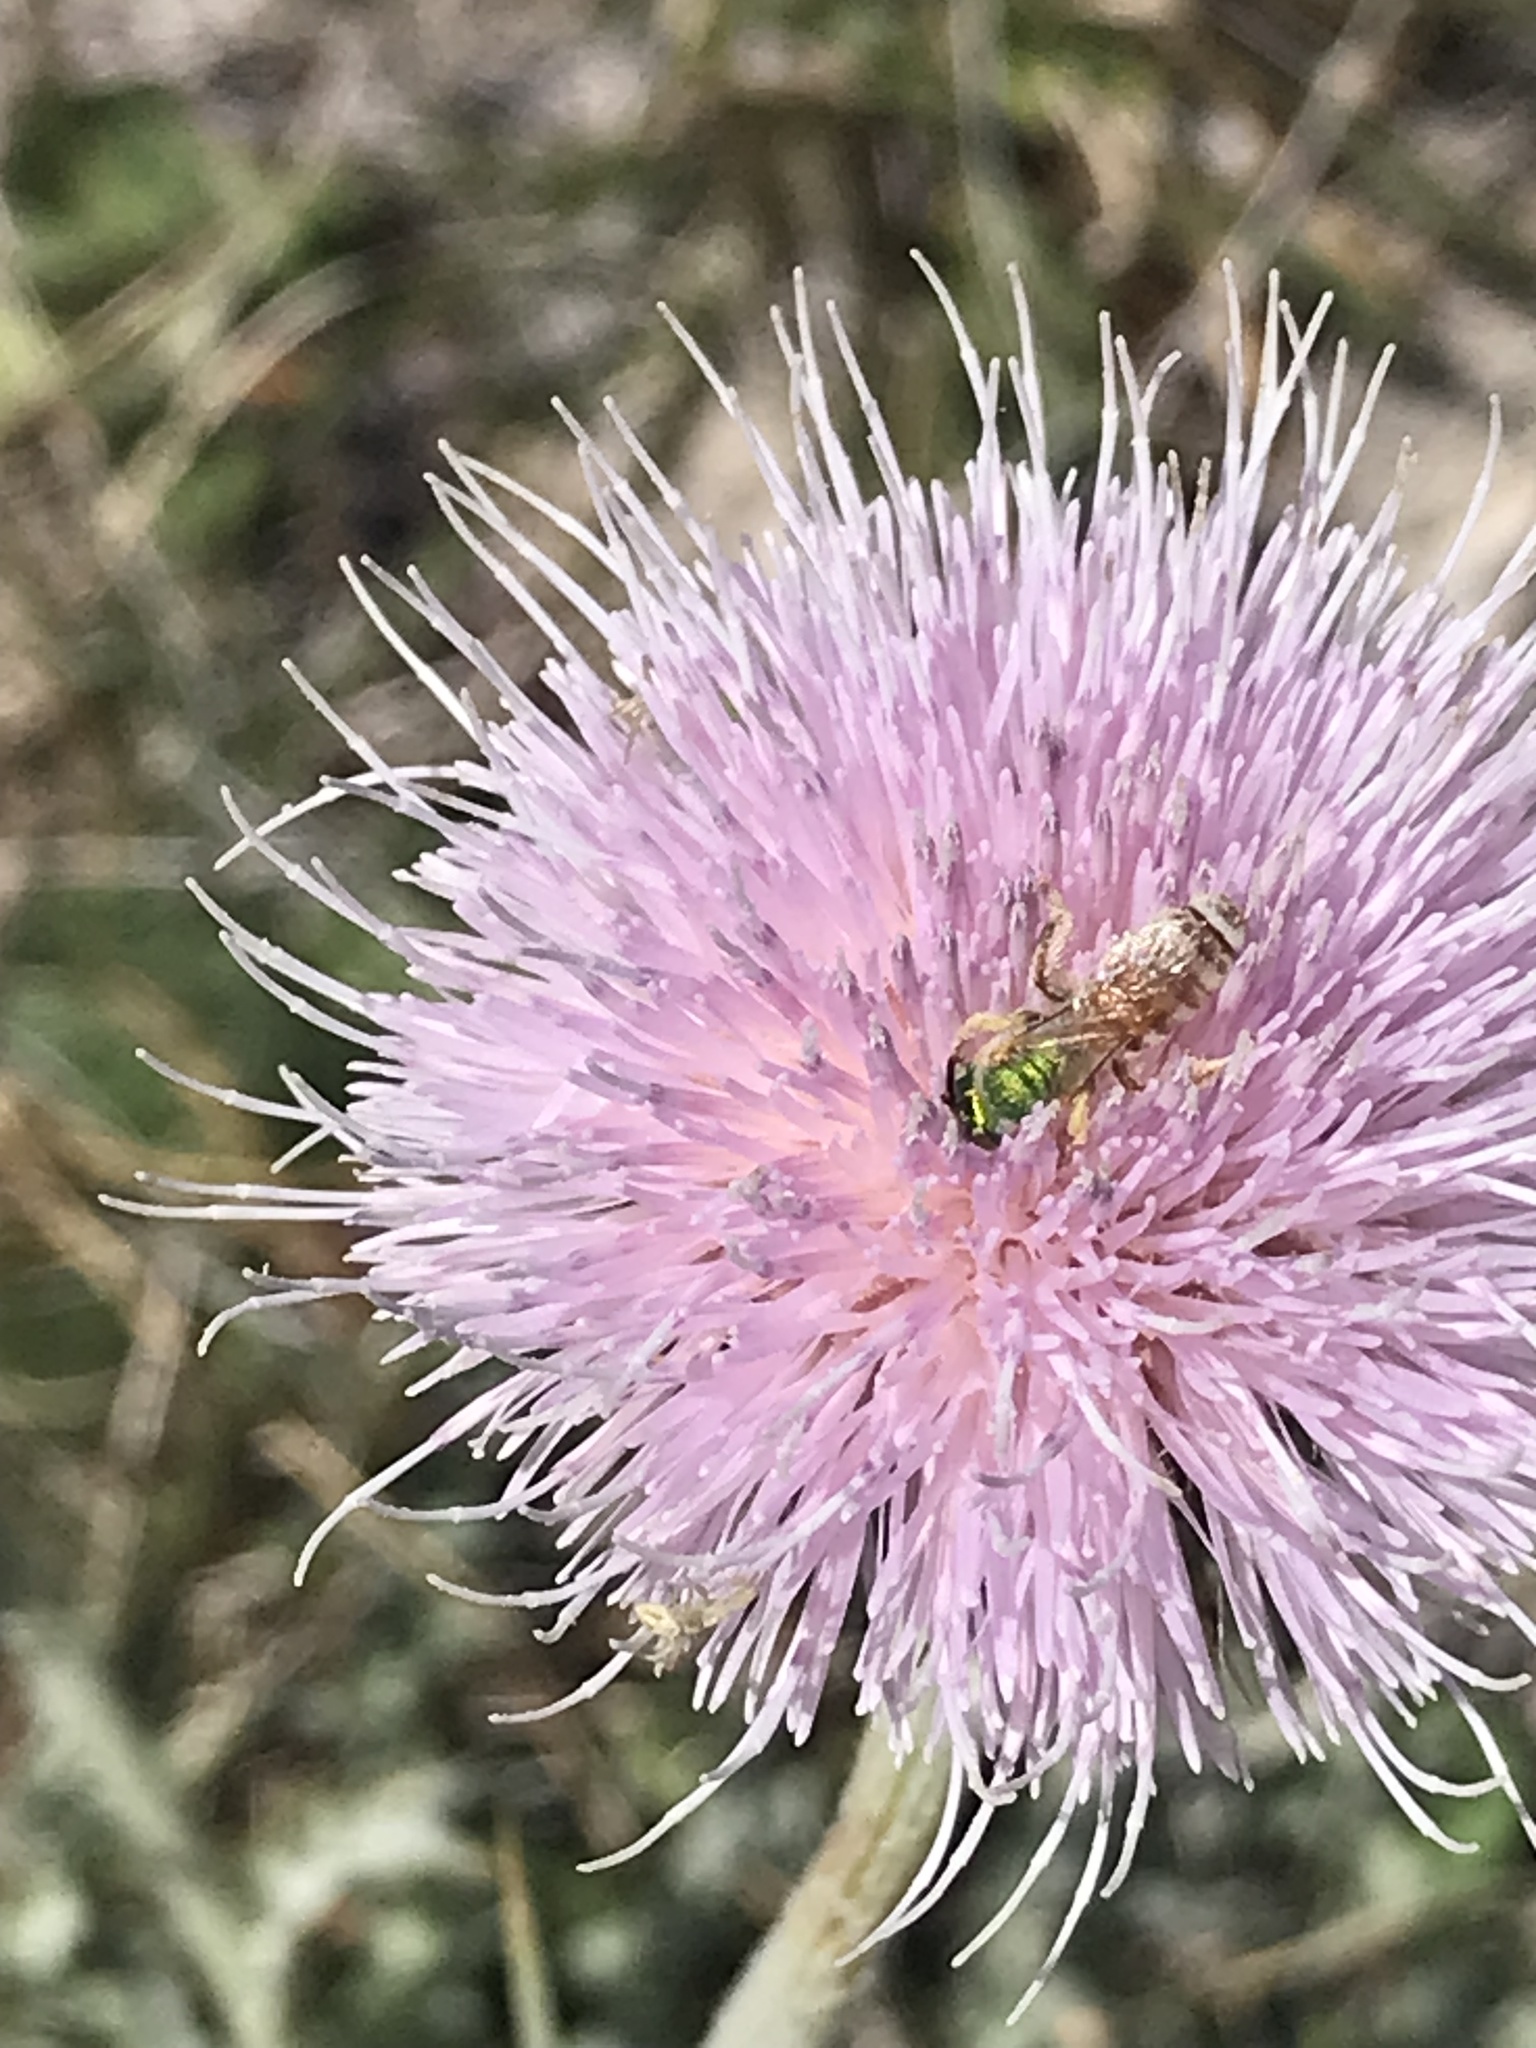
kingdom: Animalia
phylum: Arthropoda
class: Insecta
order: Hymenoptera
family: Halictidae
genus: Agapostemon
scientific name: Agapostemon melliventris
